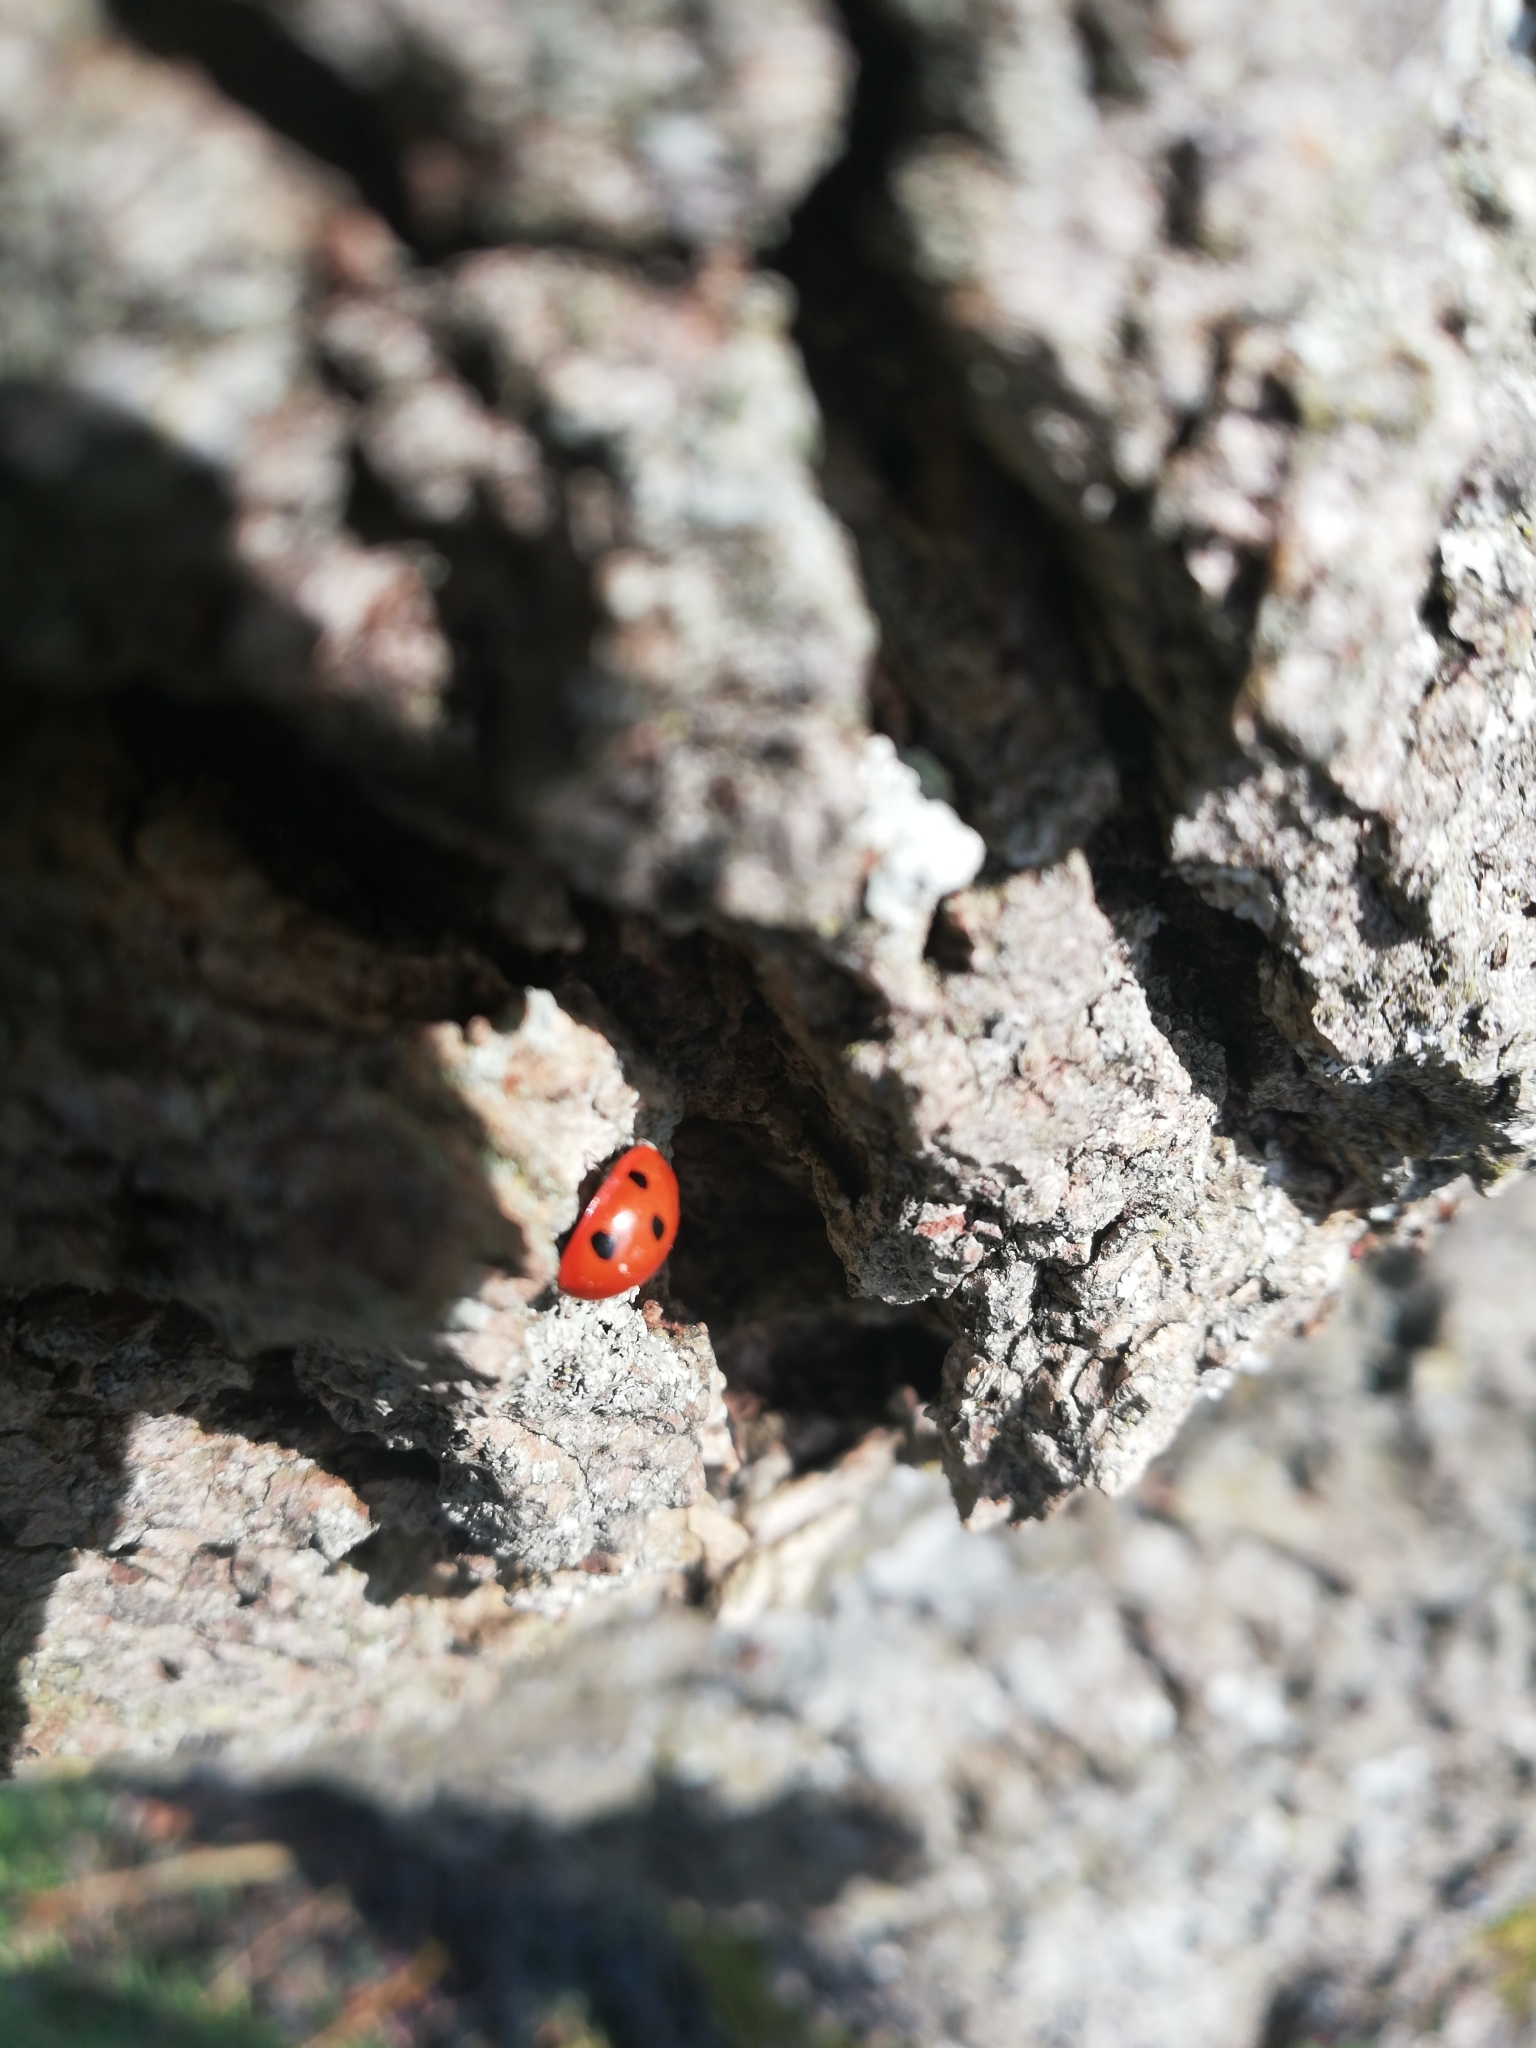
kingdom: Animalia
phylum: Arthropoda
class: Insecta
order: Coleoptera
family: Coccinellidae
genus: Coccinella
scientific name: Coccinella septempunctata
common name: Sevenspotted lady beetle
